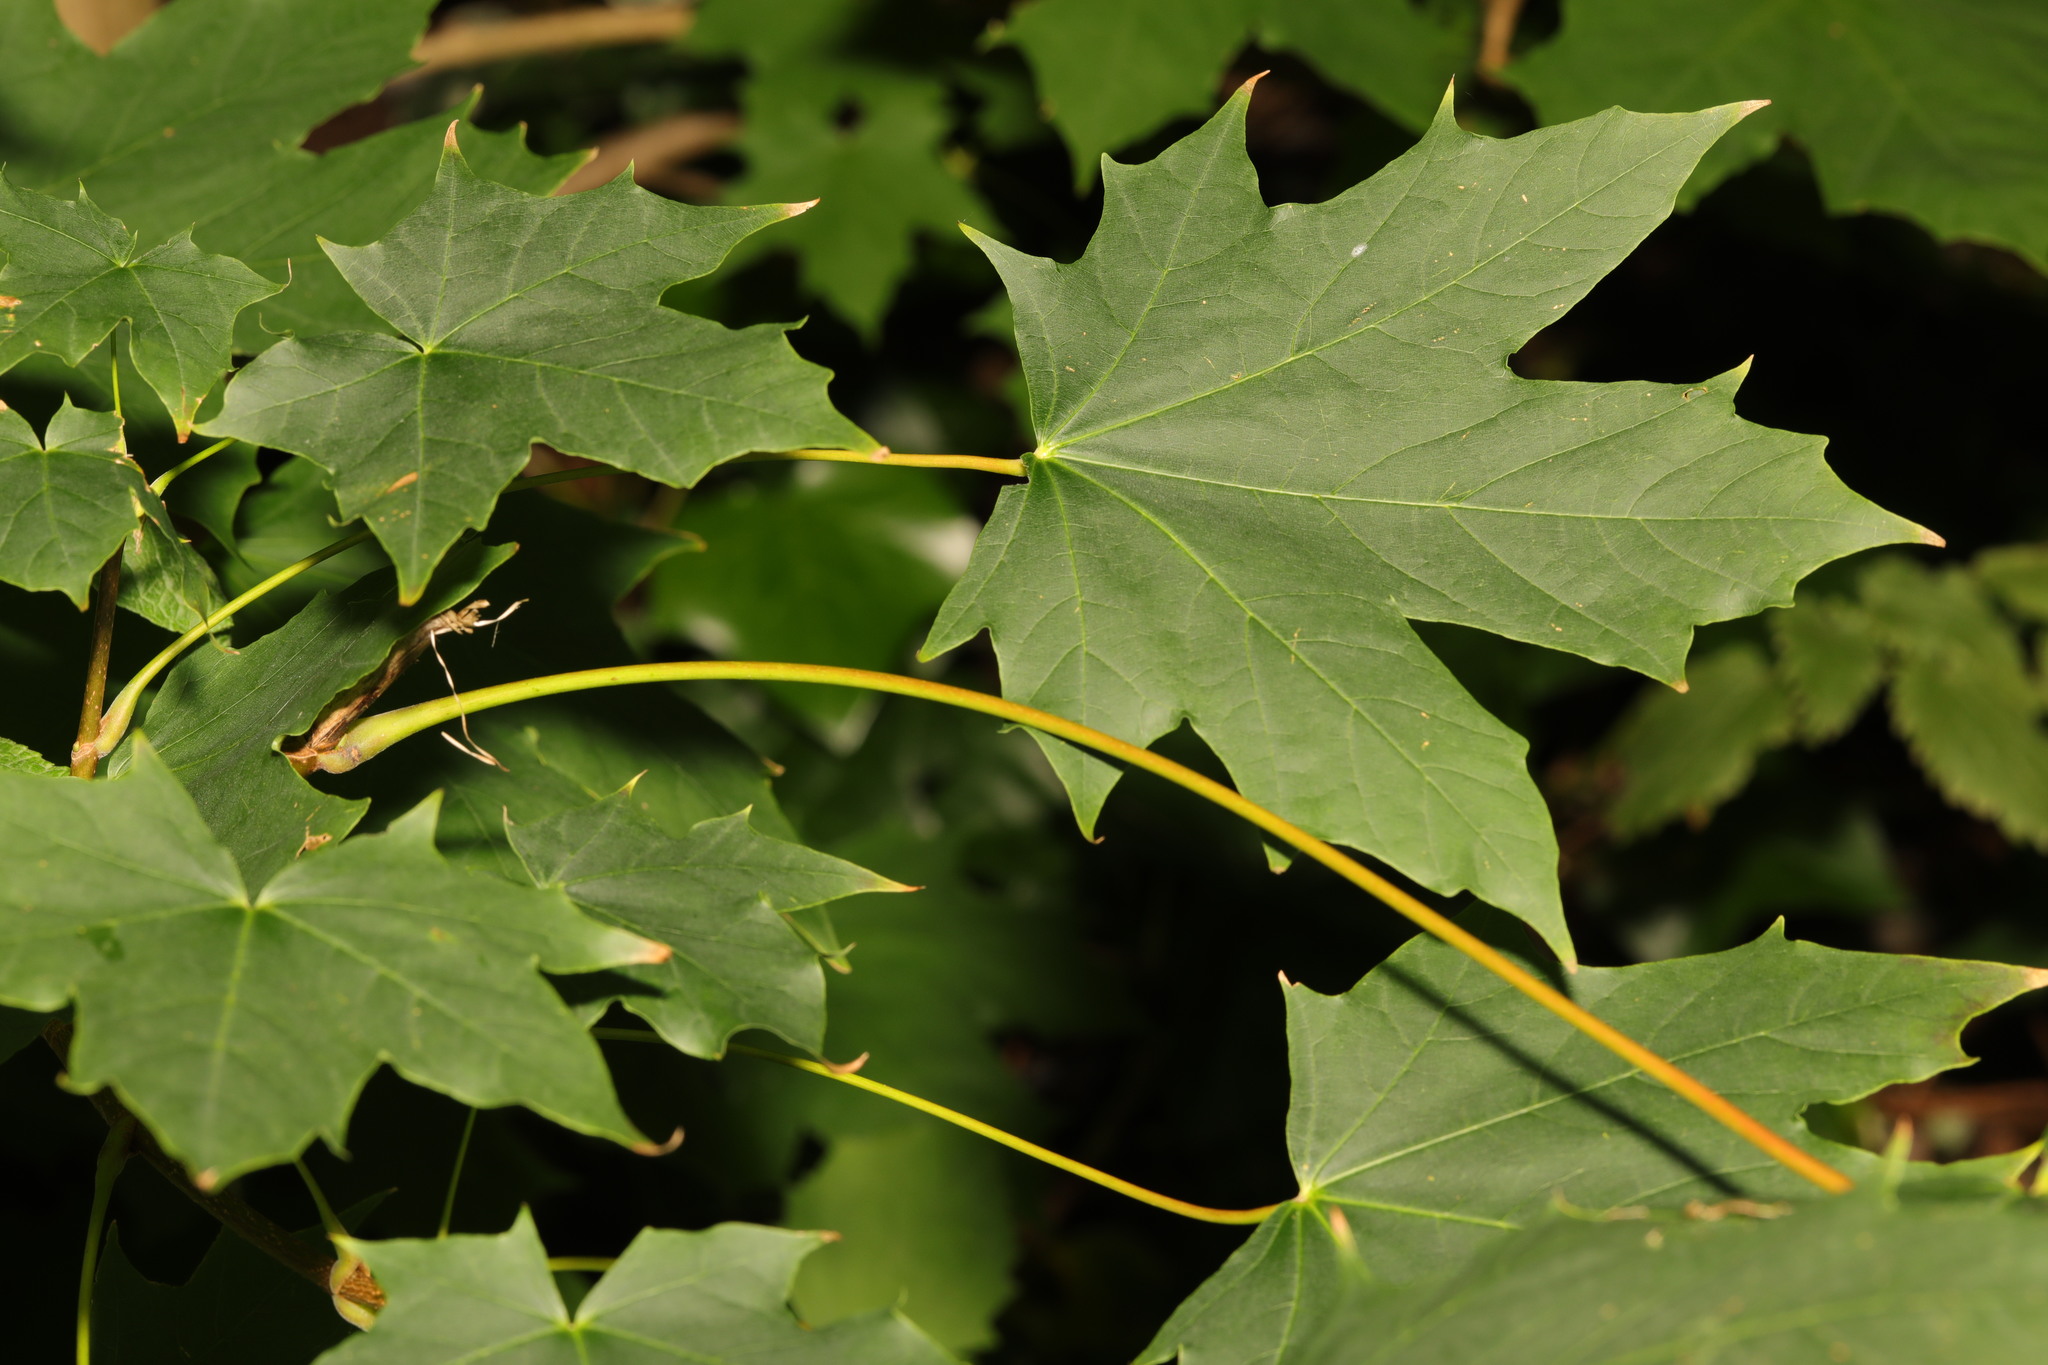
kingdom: Plantae
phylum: Tracheophyta
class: Magnoliopsida
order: Sapindales
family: Sapindaceae
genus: Acer
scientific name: Acer platanoides
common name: Norway maple
